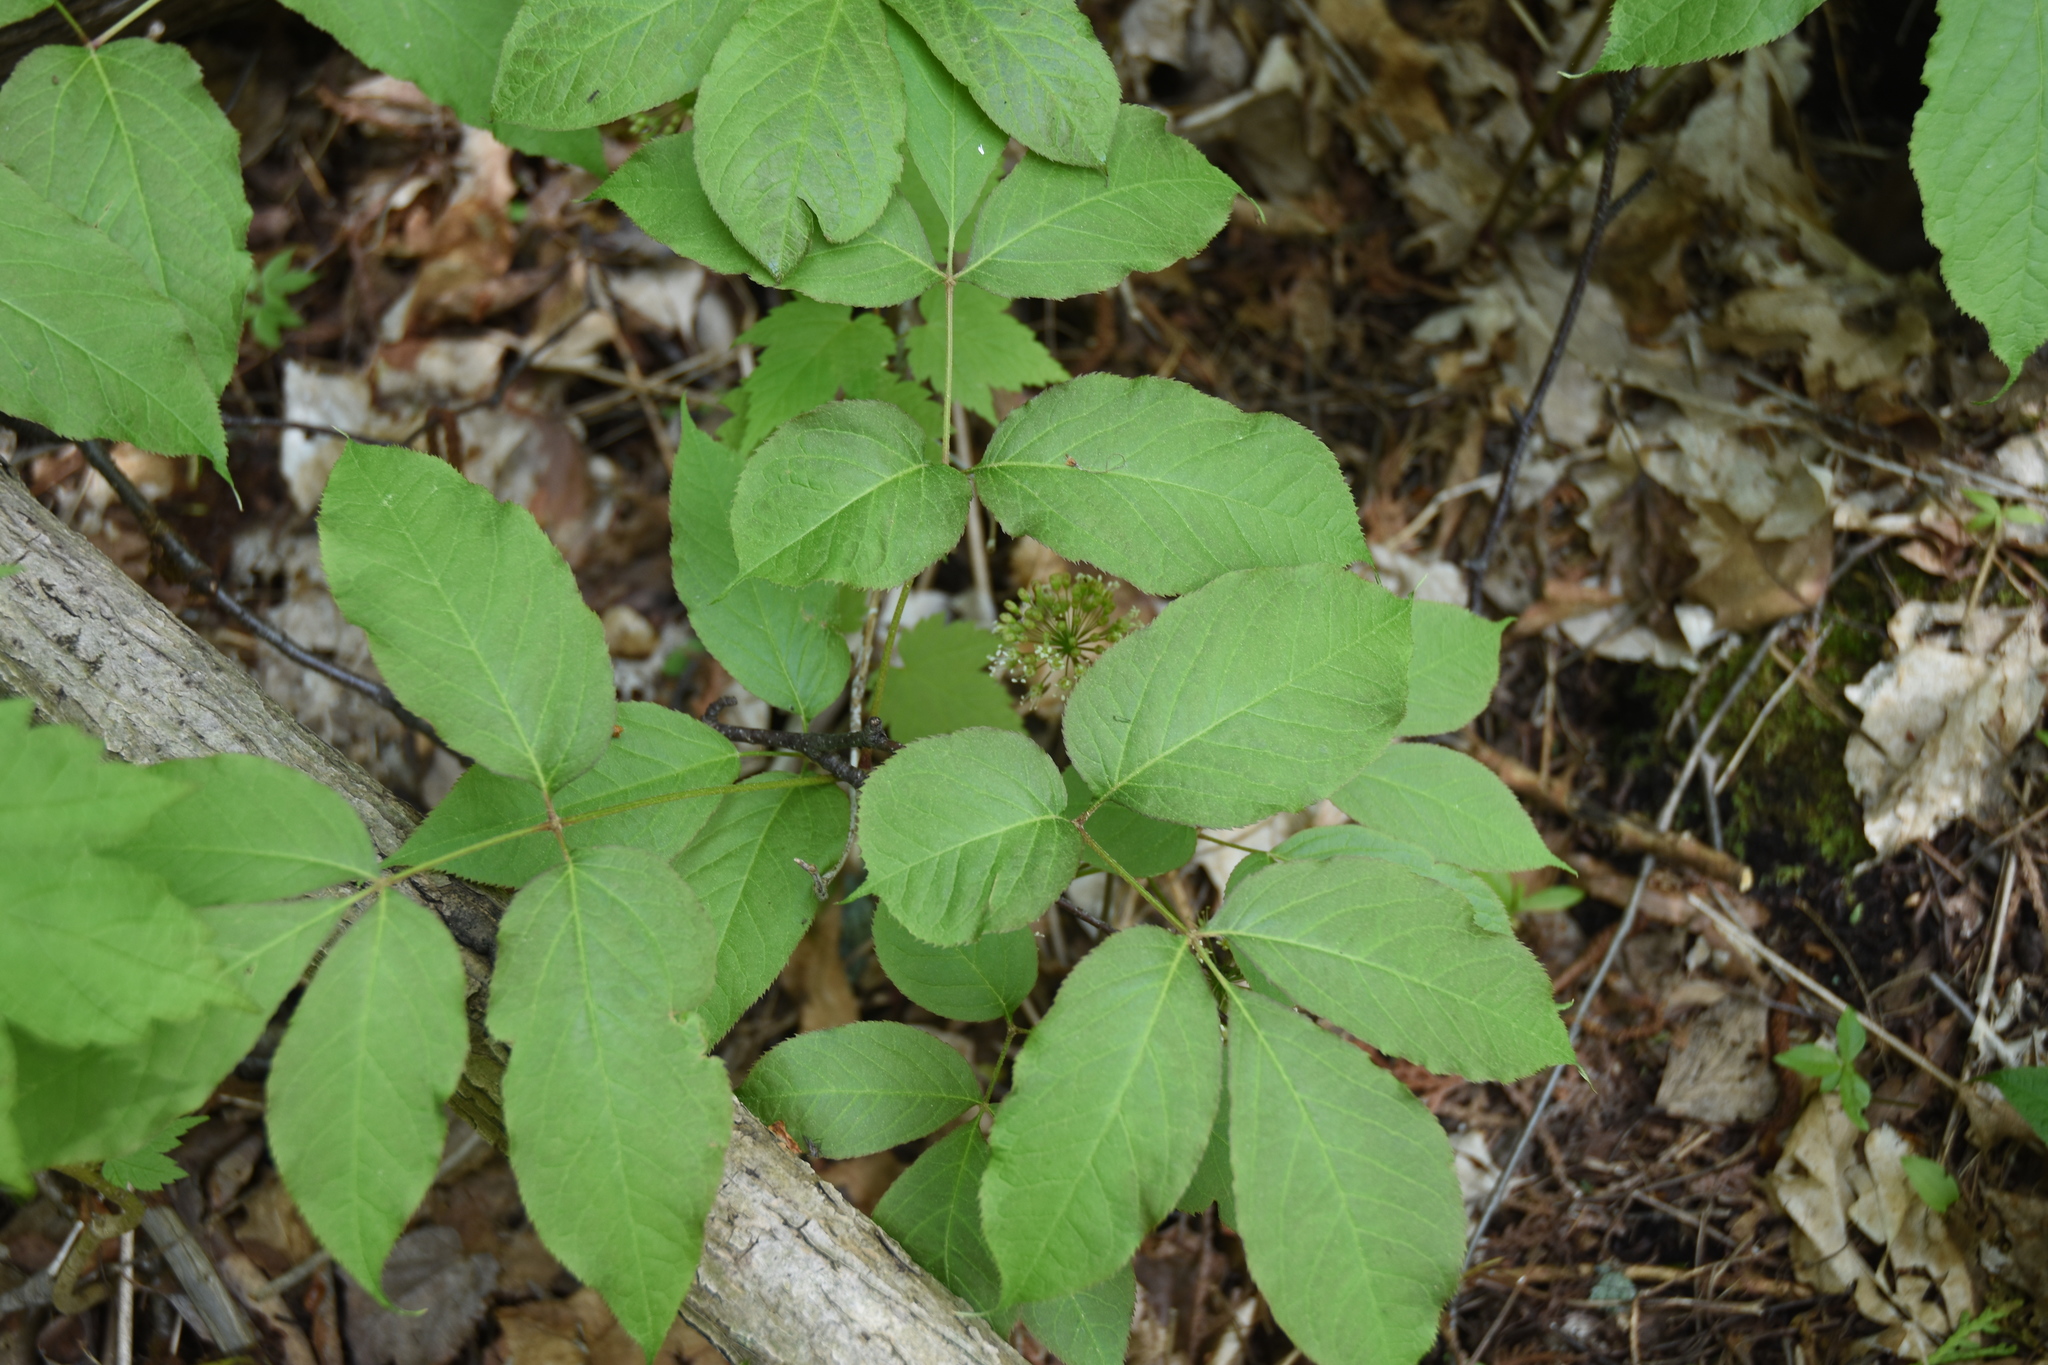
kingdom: Plantae
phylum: Tracheophyta
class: Magnoliopsida
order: Apiales
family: Araliaceae
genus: Aralia
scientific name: Aralia nudicaulis
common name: Wild sarsaparilla
